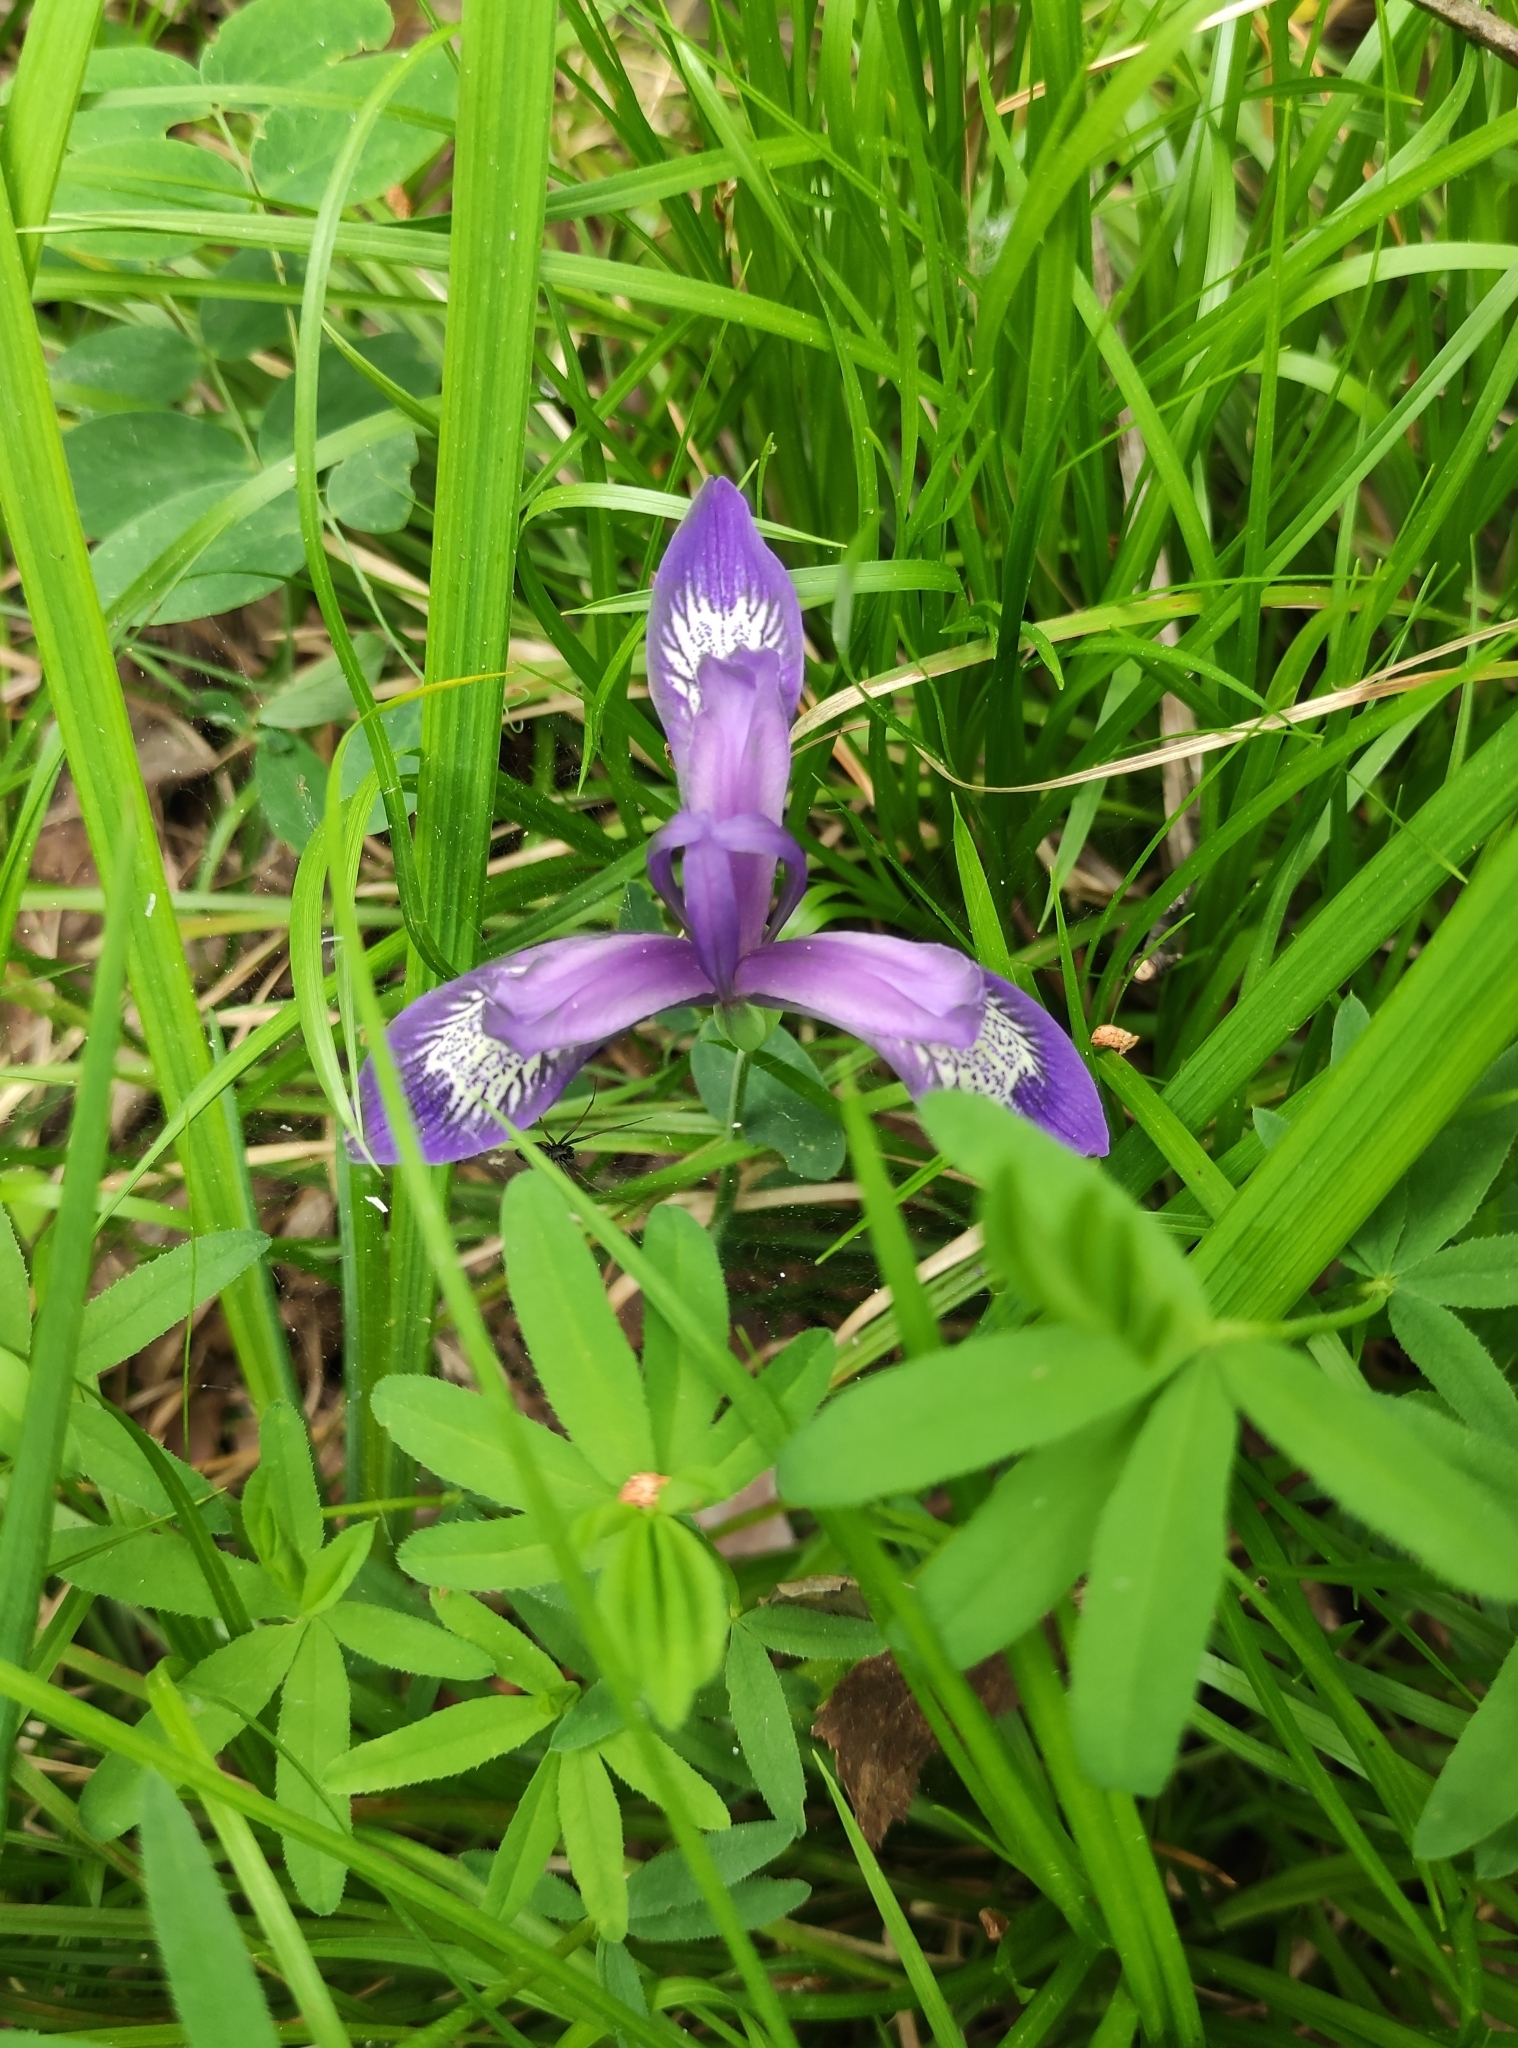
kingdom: Plantae
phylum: Tracheophyta
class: Liliopsida
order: Asparagales
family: Iridaceae
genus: Iris
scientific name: Iris ruthenica
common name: Purple-bract iris
